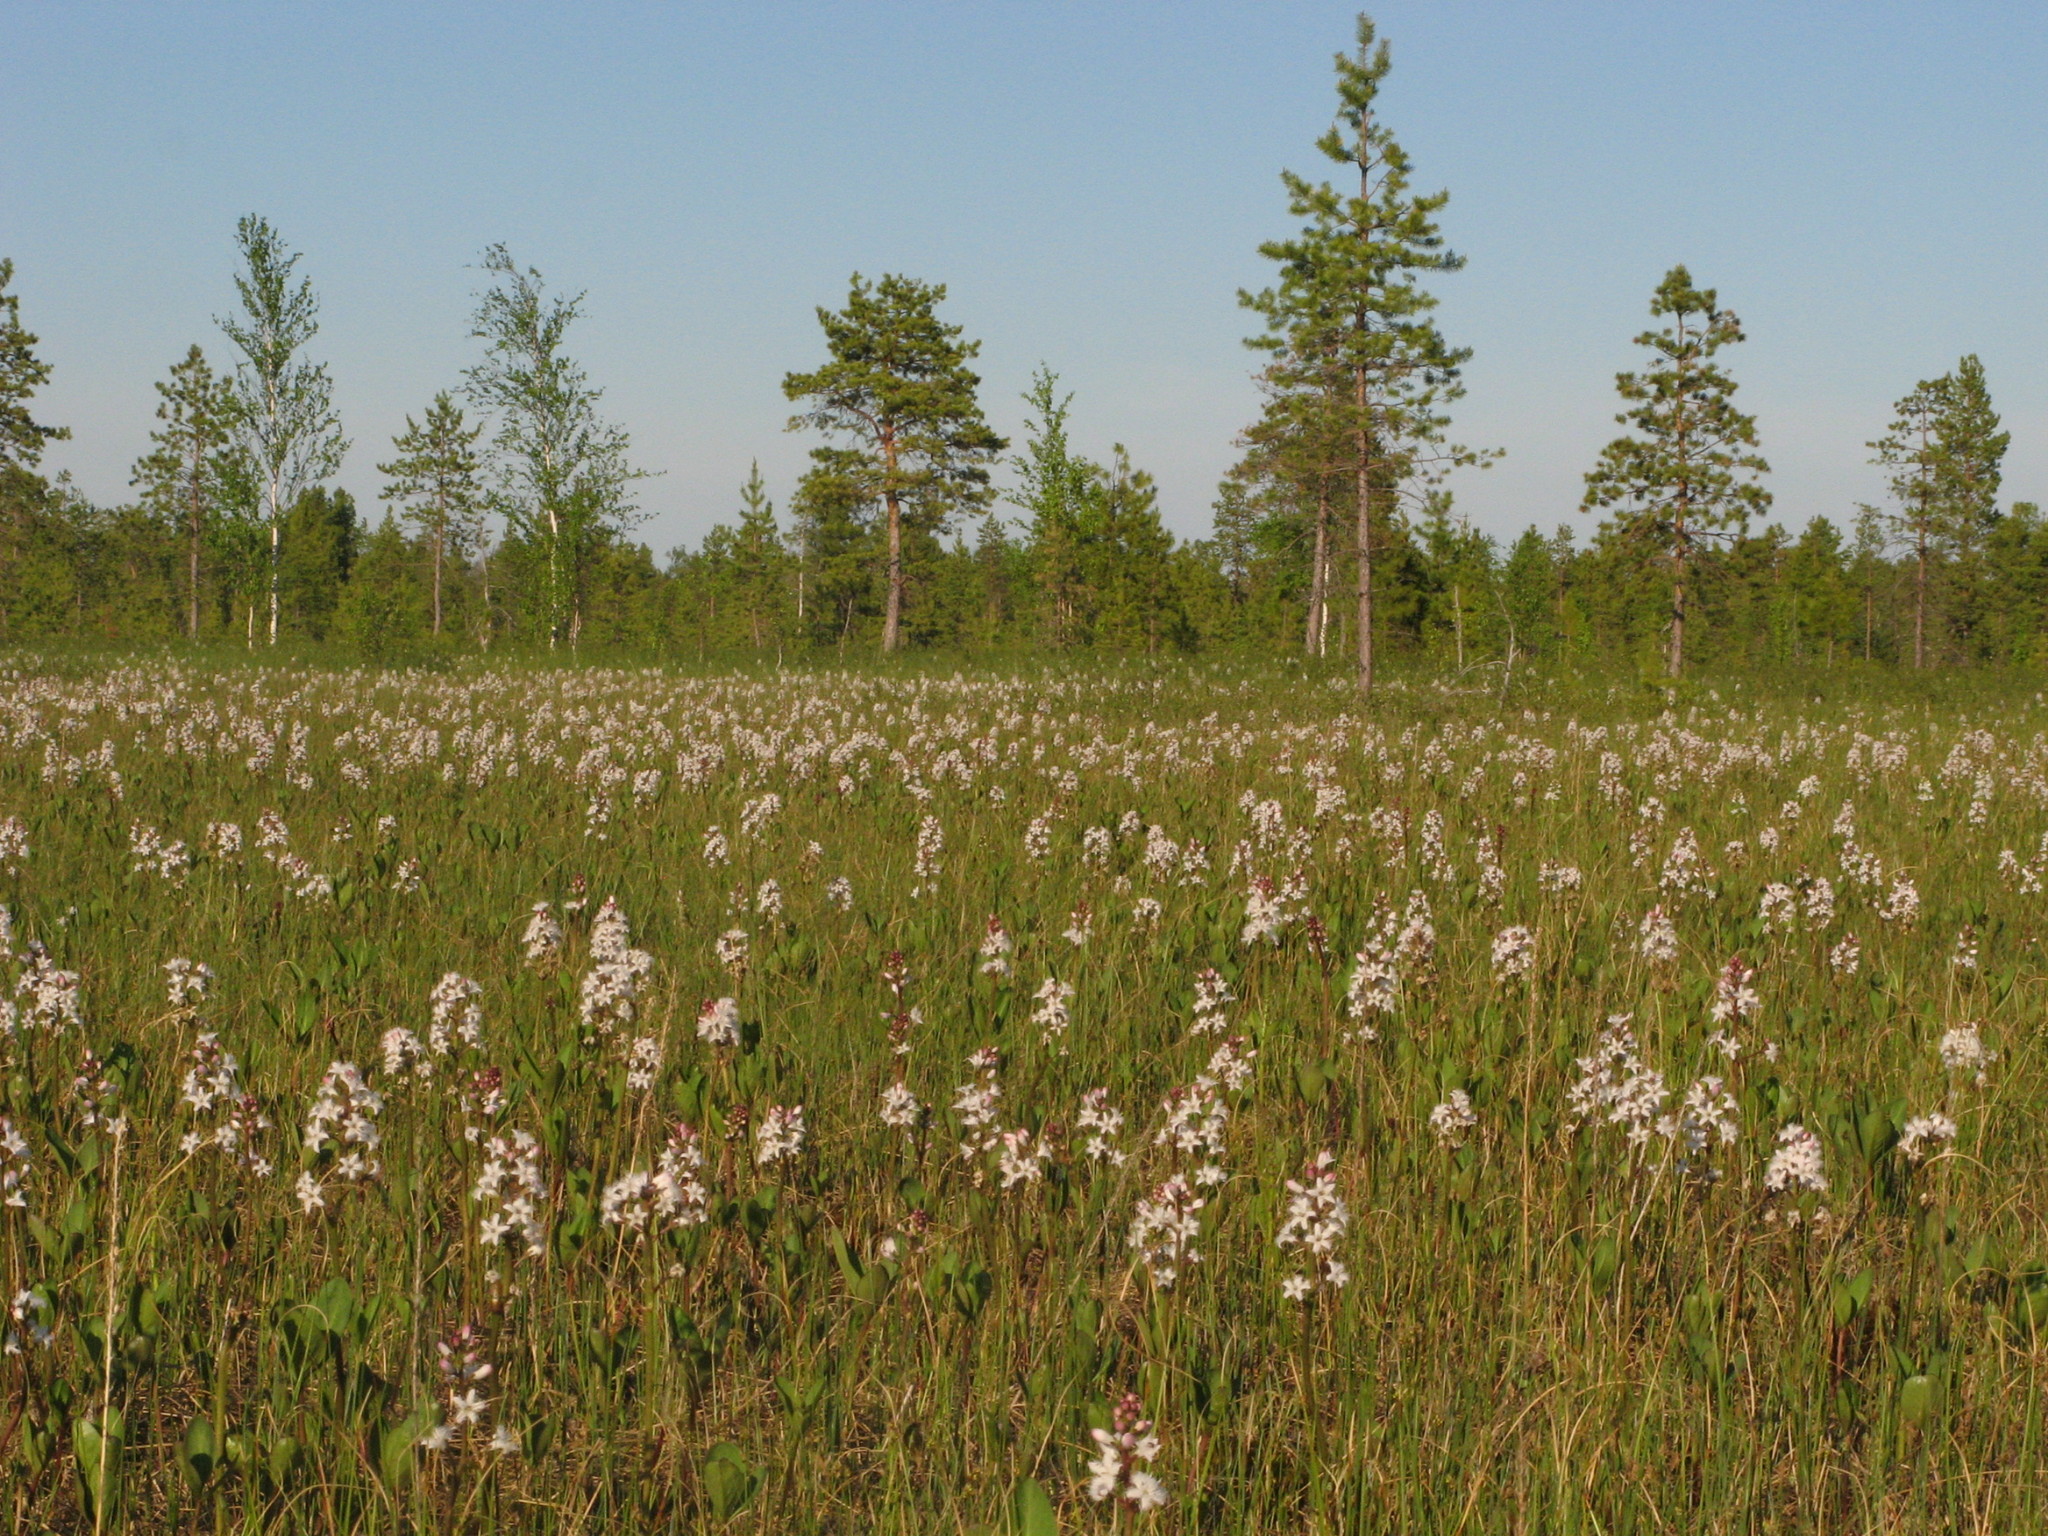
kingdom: Plantae
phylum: Tracheophyta
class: Magnoliopsida
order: Asterales
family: Menyanthaceae
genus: Menyanthes
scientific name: Menyanthes trifoliata
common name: Bogbean
